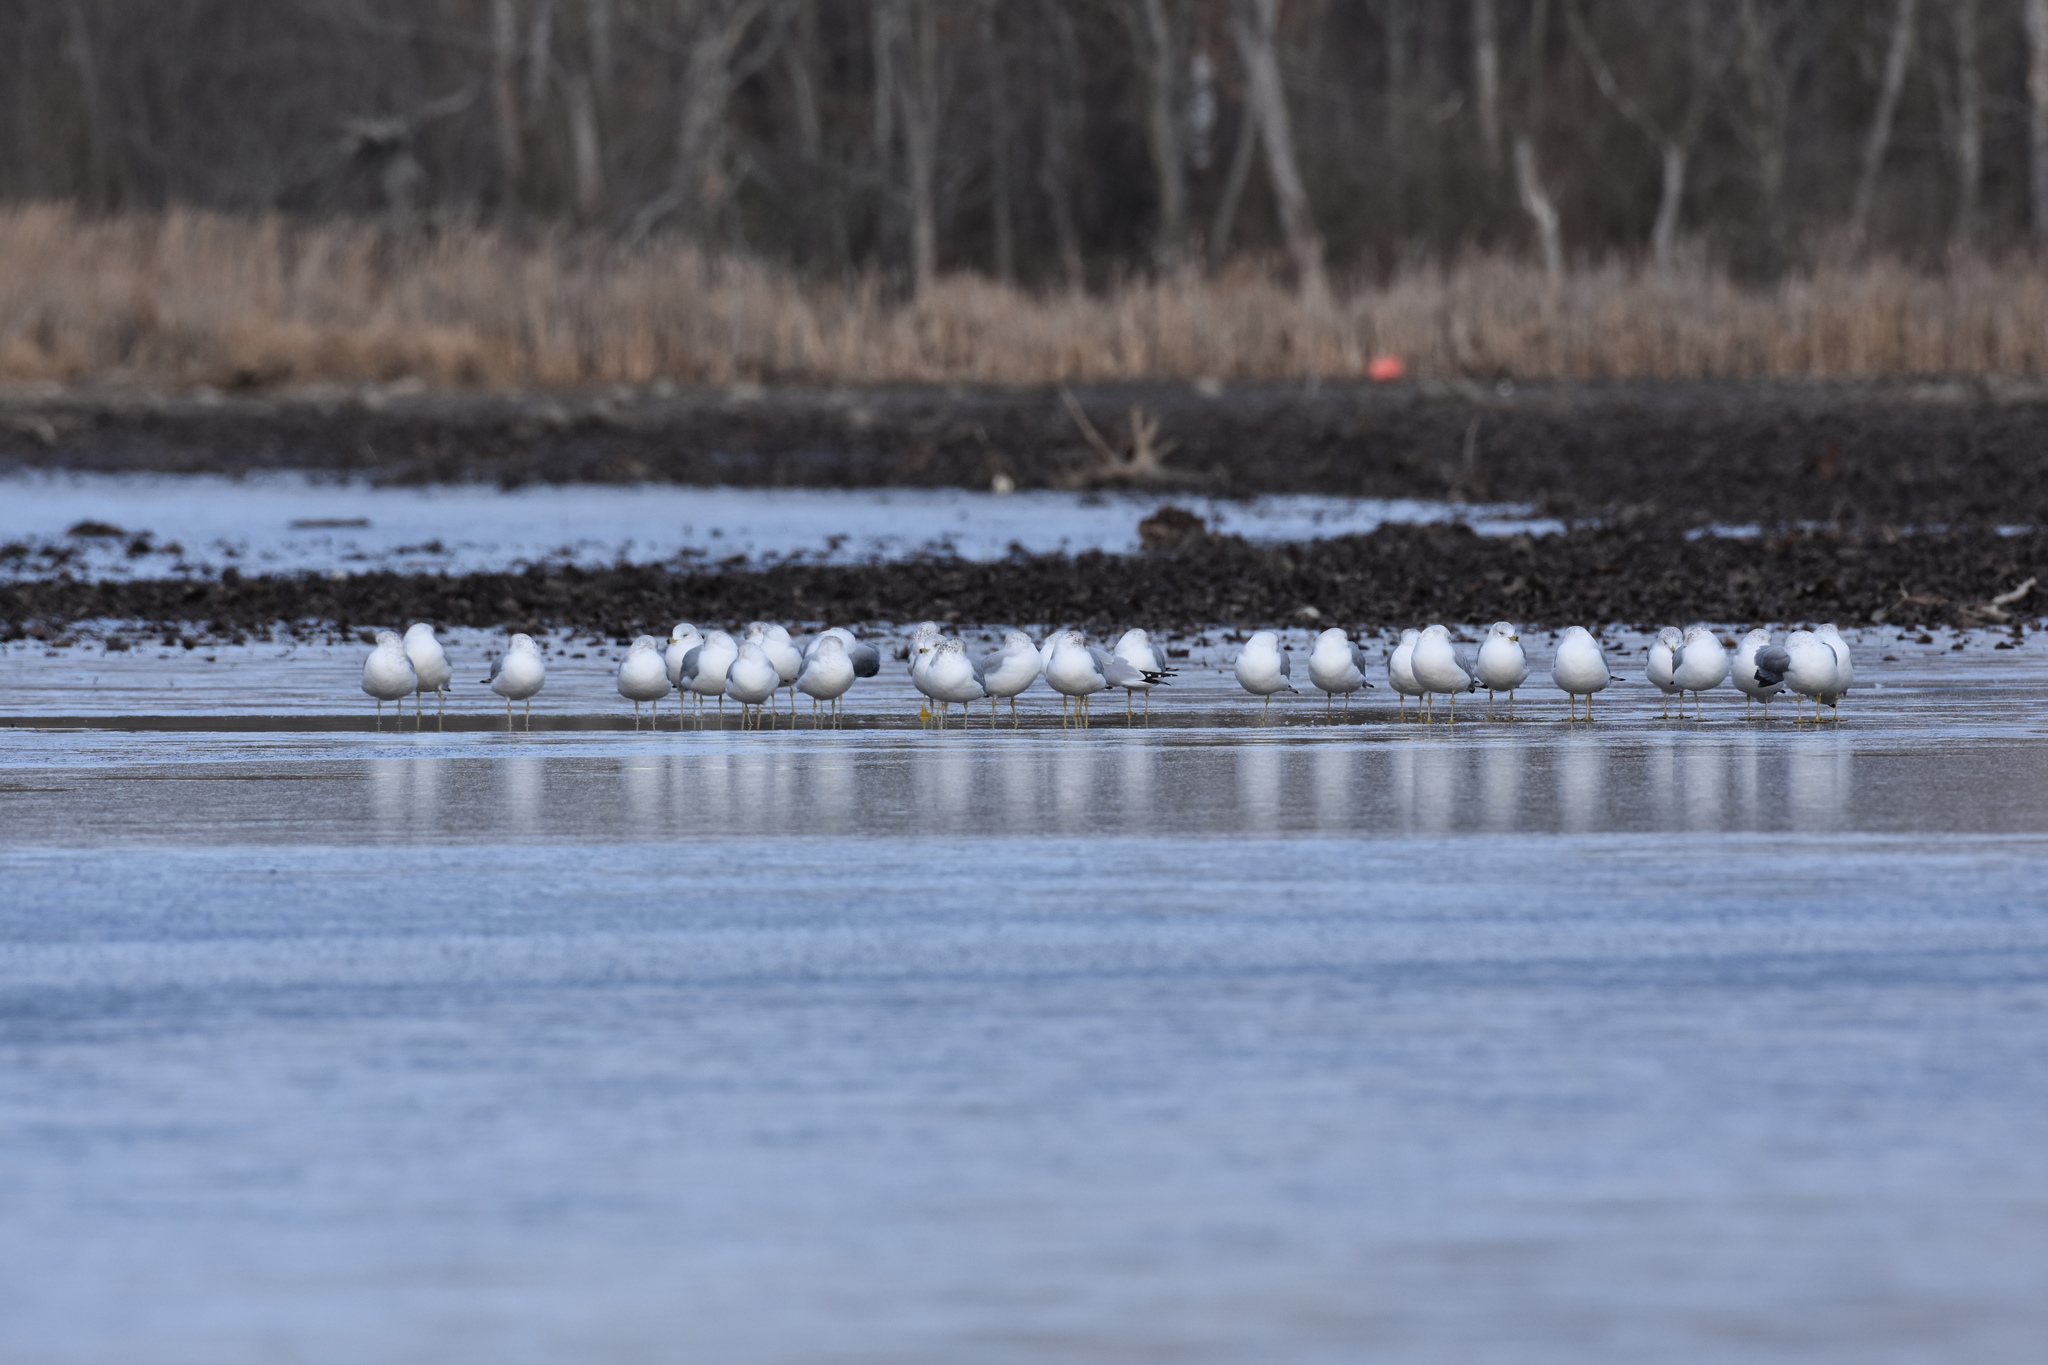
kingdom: Animalia
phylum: Chordata
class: Aves
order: Charadriiformes
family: Laridae
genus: Larus
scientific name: Larus delawarensis
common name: Ring-billed gull
